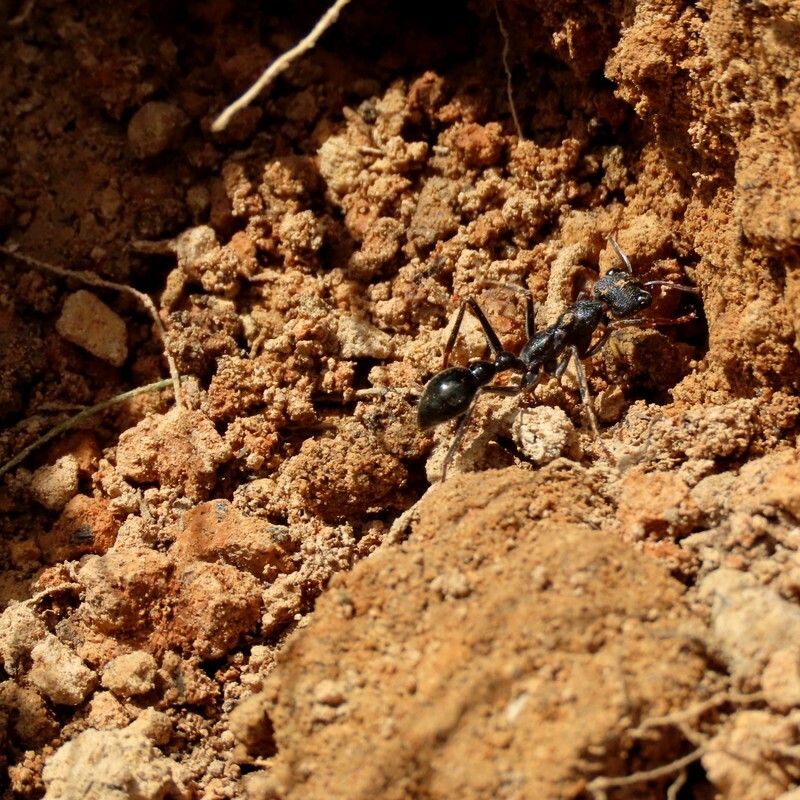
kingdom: Animalia
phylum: Arthropoda
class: Insecta
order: Hymenoptera
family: Formicidae
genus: Myrmecia
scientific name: Myrmecia pyriformis
